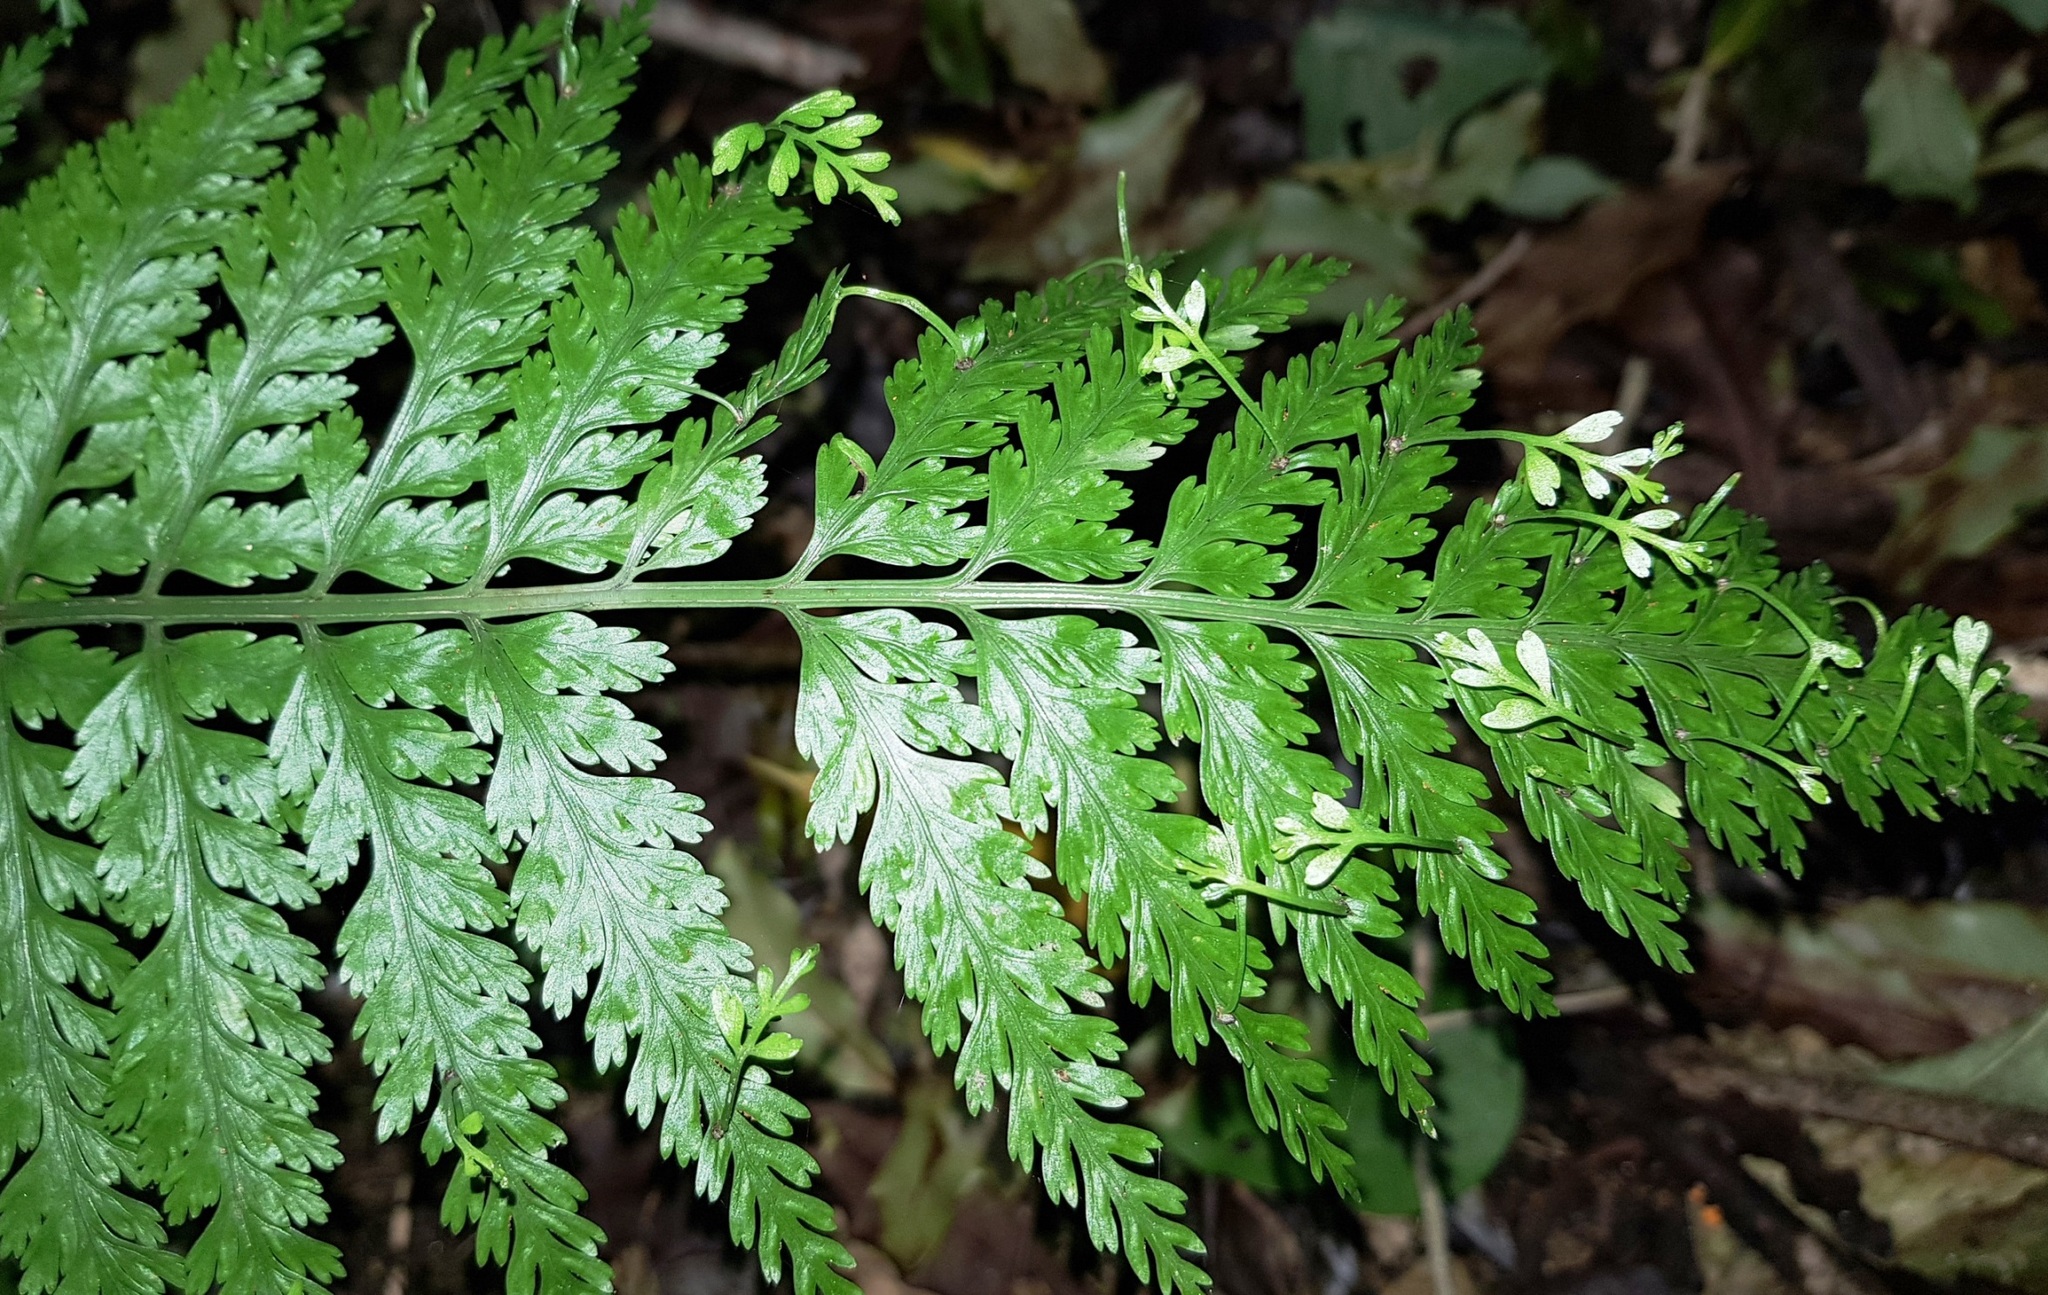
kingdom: Plantae
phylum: Tracheophyta
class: Polypodiopsida
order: Polypodiales
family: Aspleniaceae
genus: Asplenium
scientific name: Asplenium bulbiferum
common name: Mother fern
